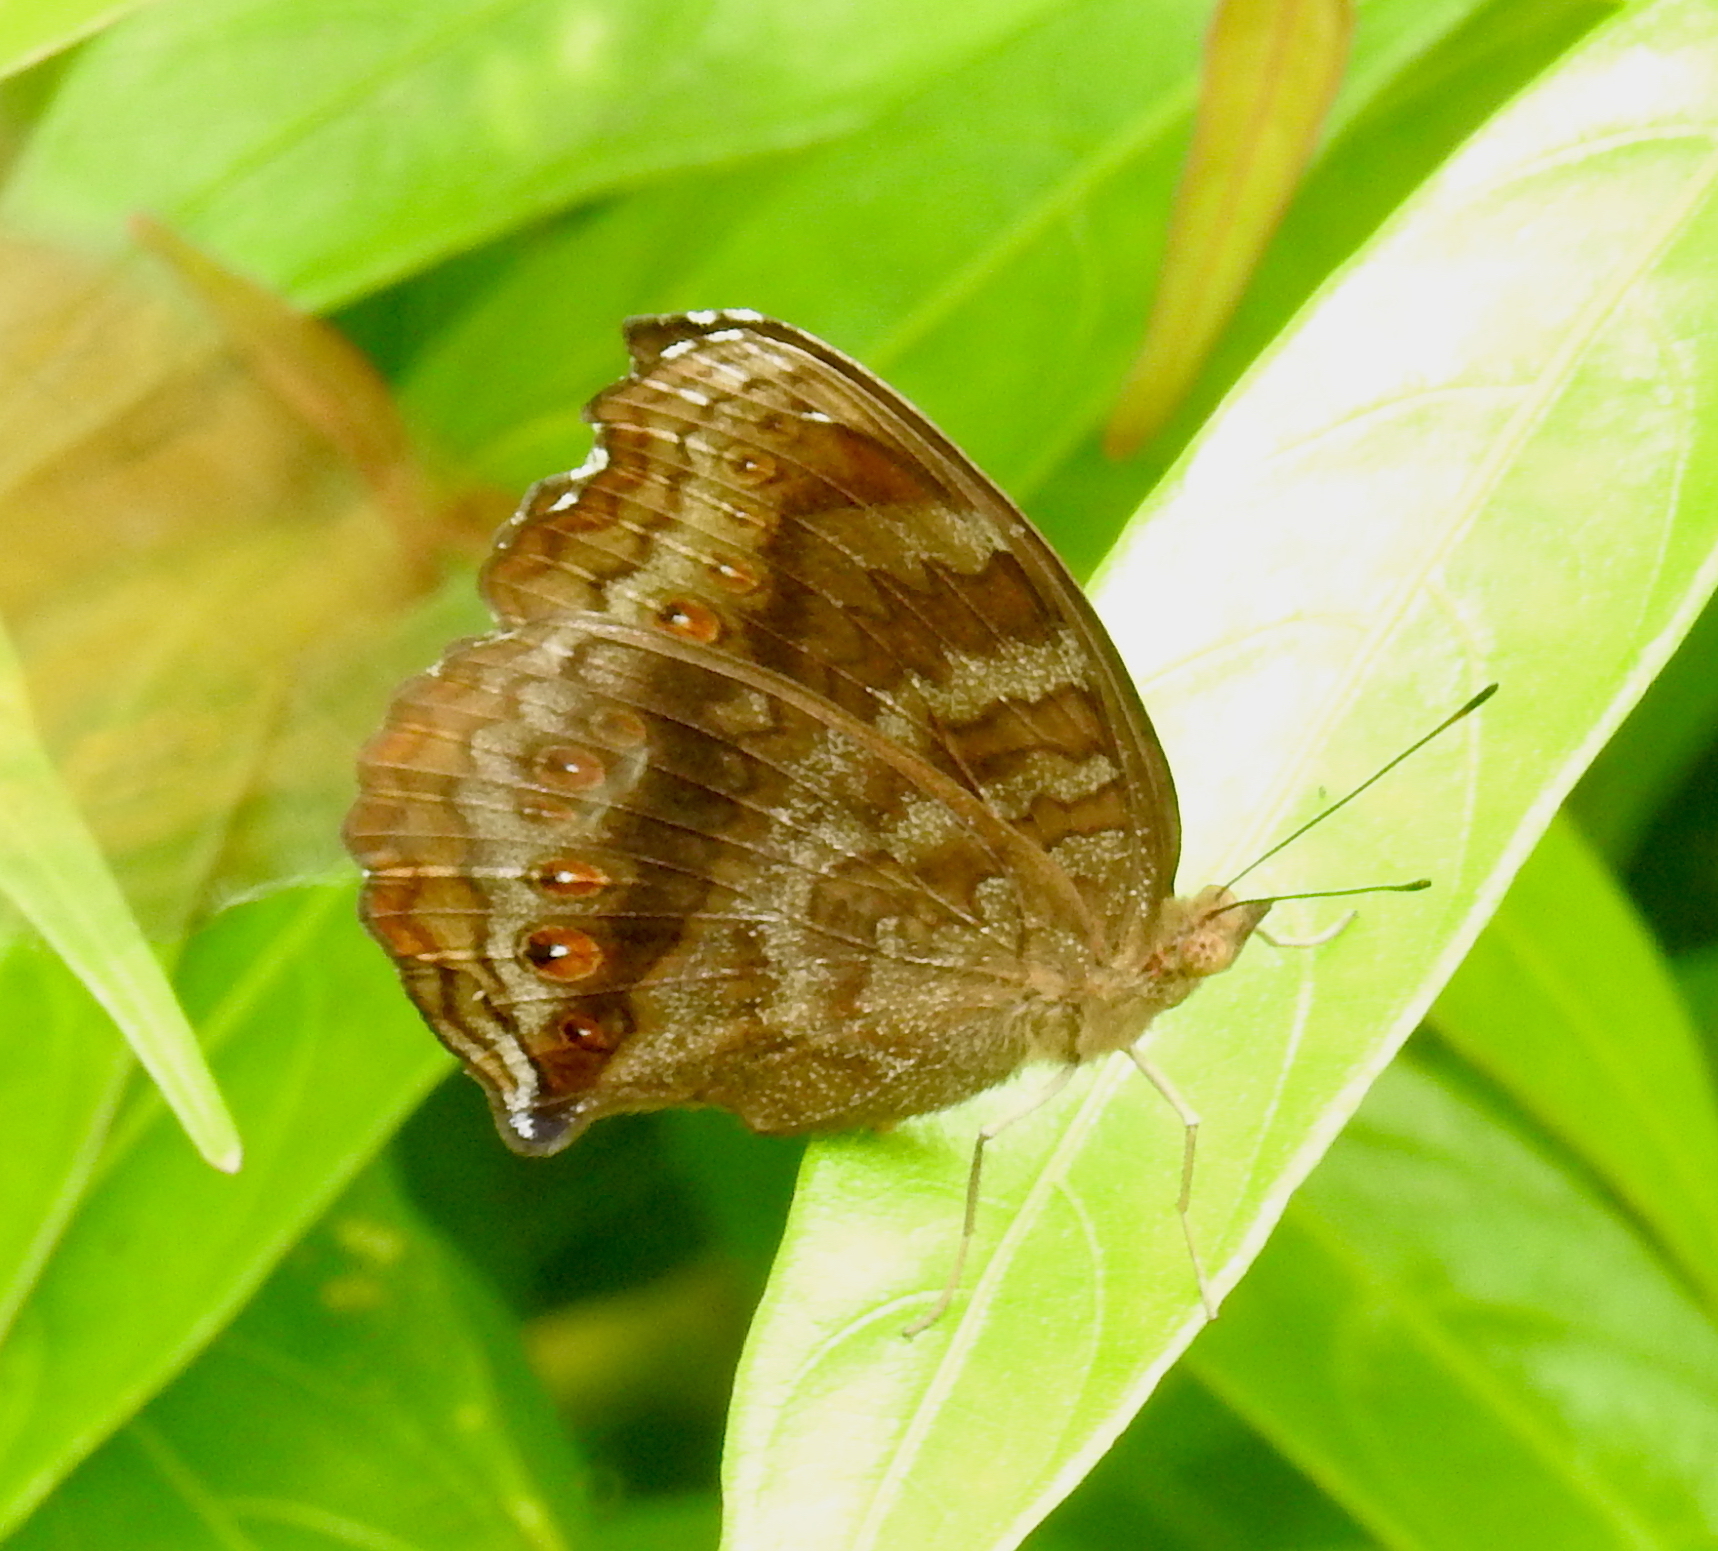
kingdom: Animalia
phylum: Arthropoda
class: Insecta
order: Lepidoptera
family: Nymphalidae
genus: Junonia
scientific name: Junonia hedonia
